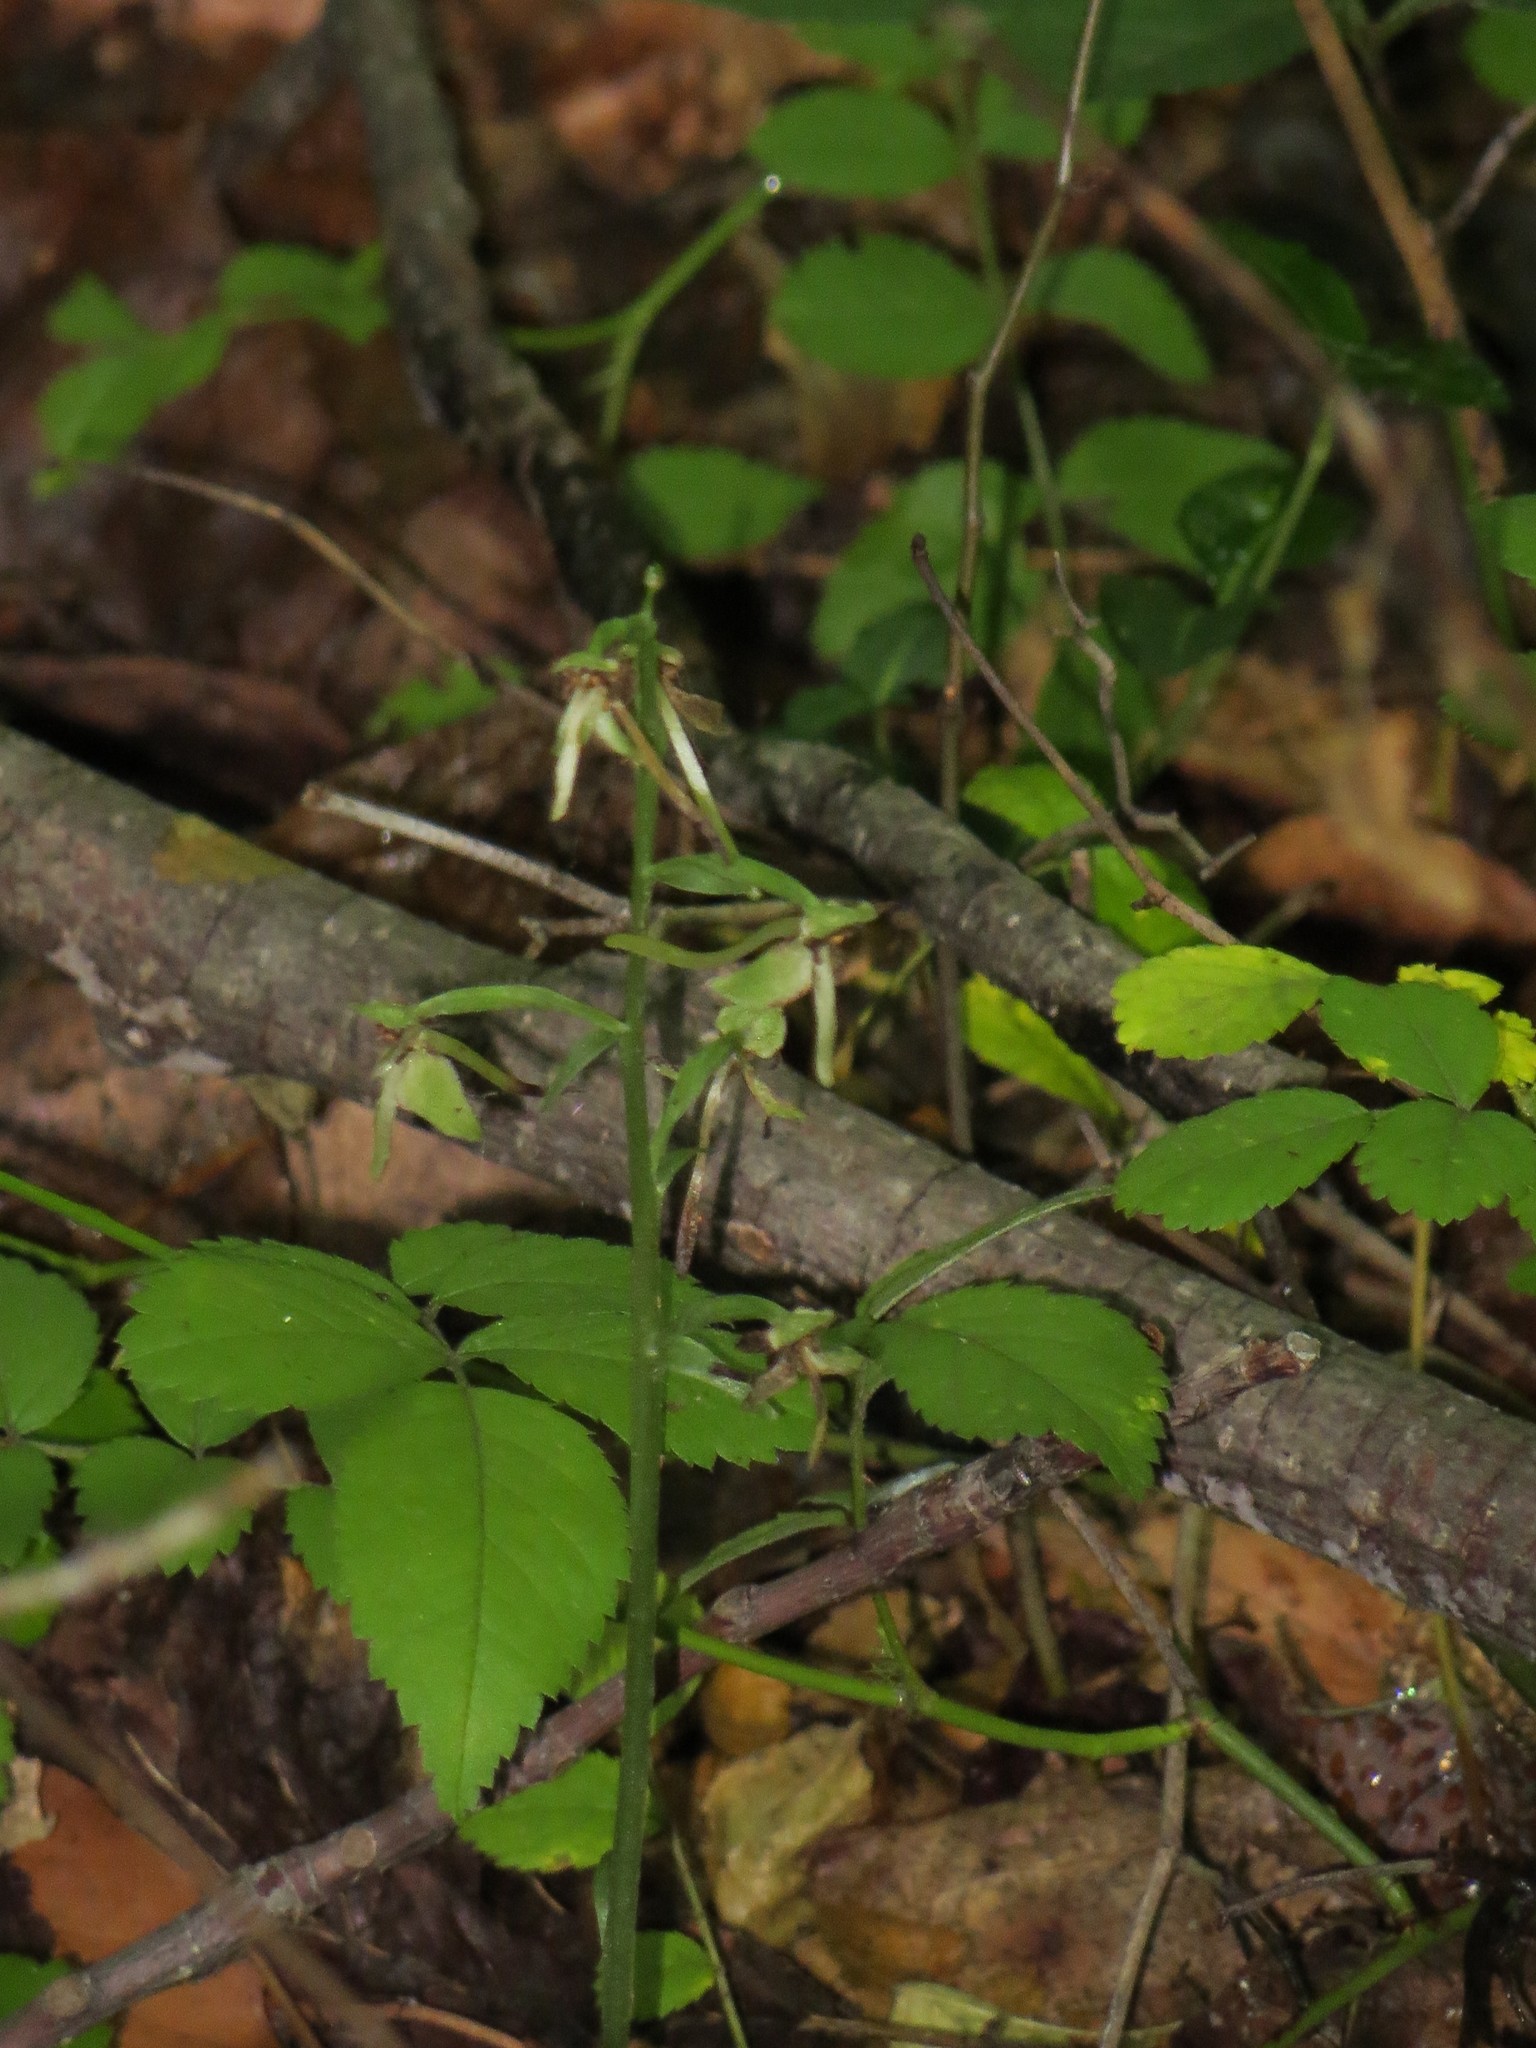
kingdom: Plantae
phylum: Tracheophyta
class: Liliopsida
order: Asparagales
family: Orchidaceae
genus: Platanthera
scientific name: Platanthera orbiculata
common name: Large round-leaved orchid
